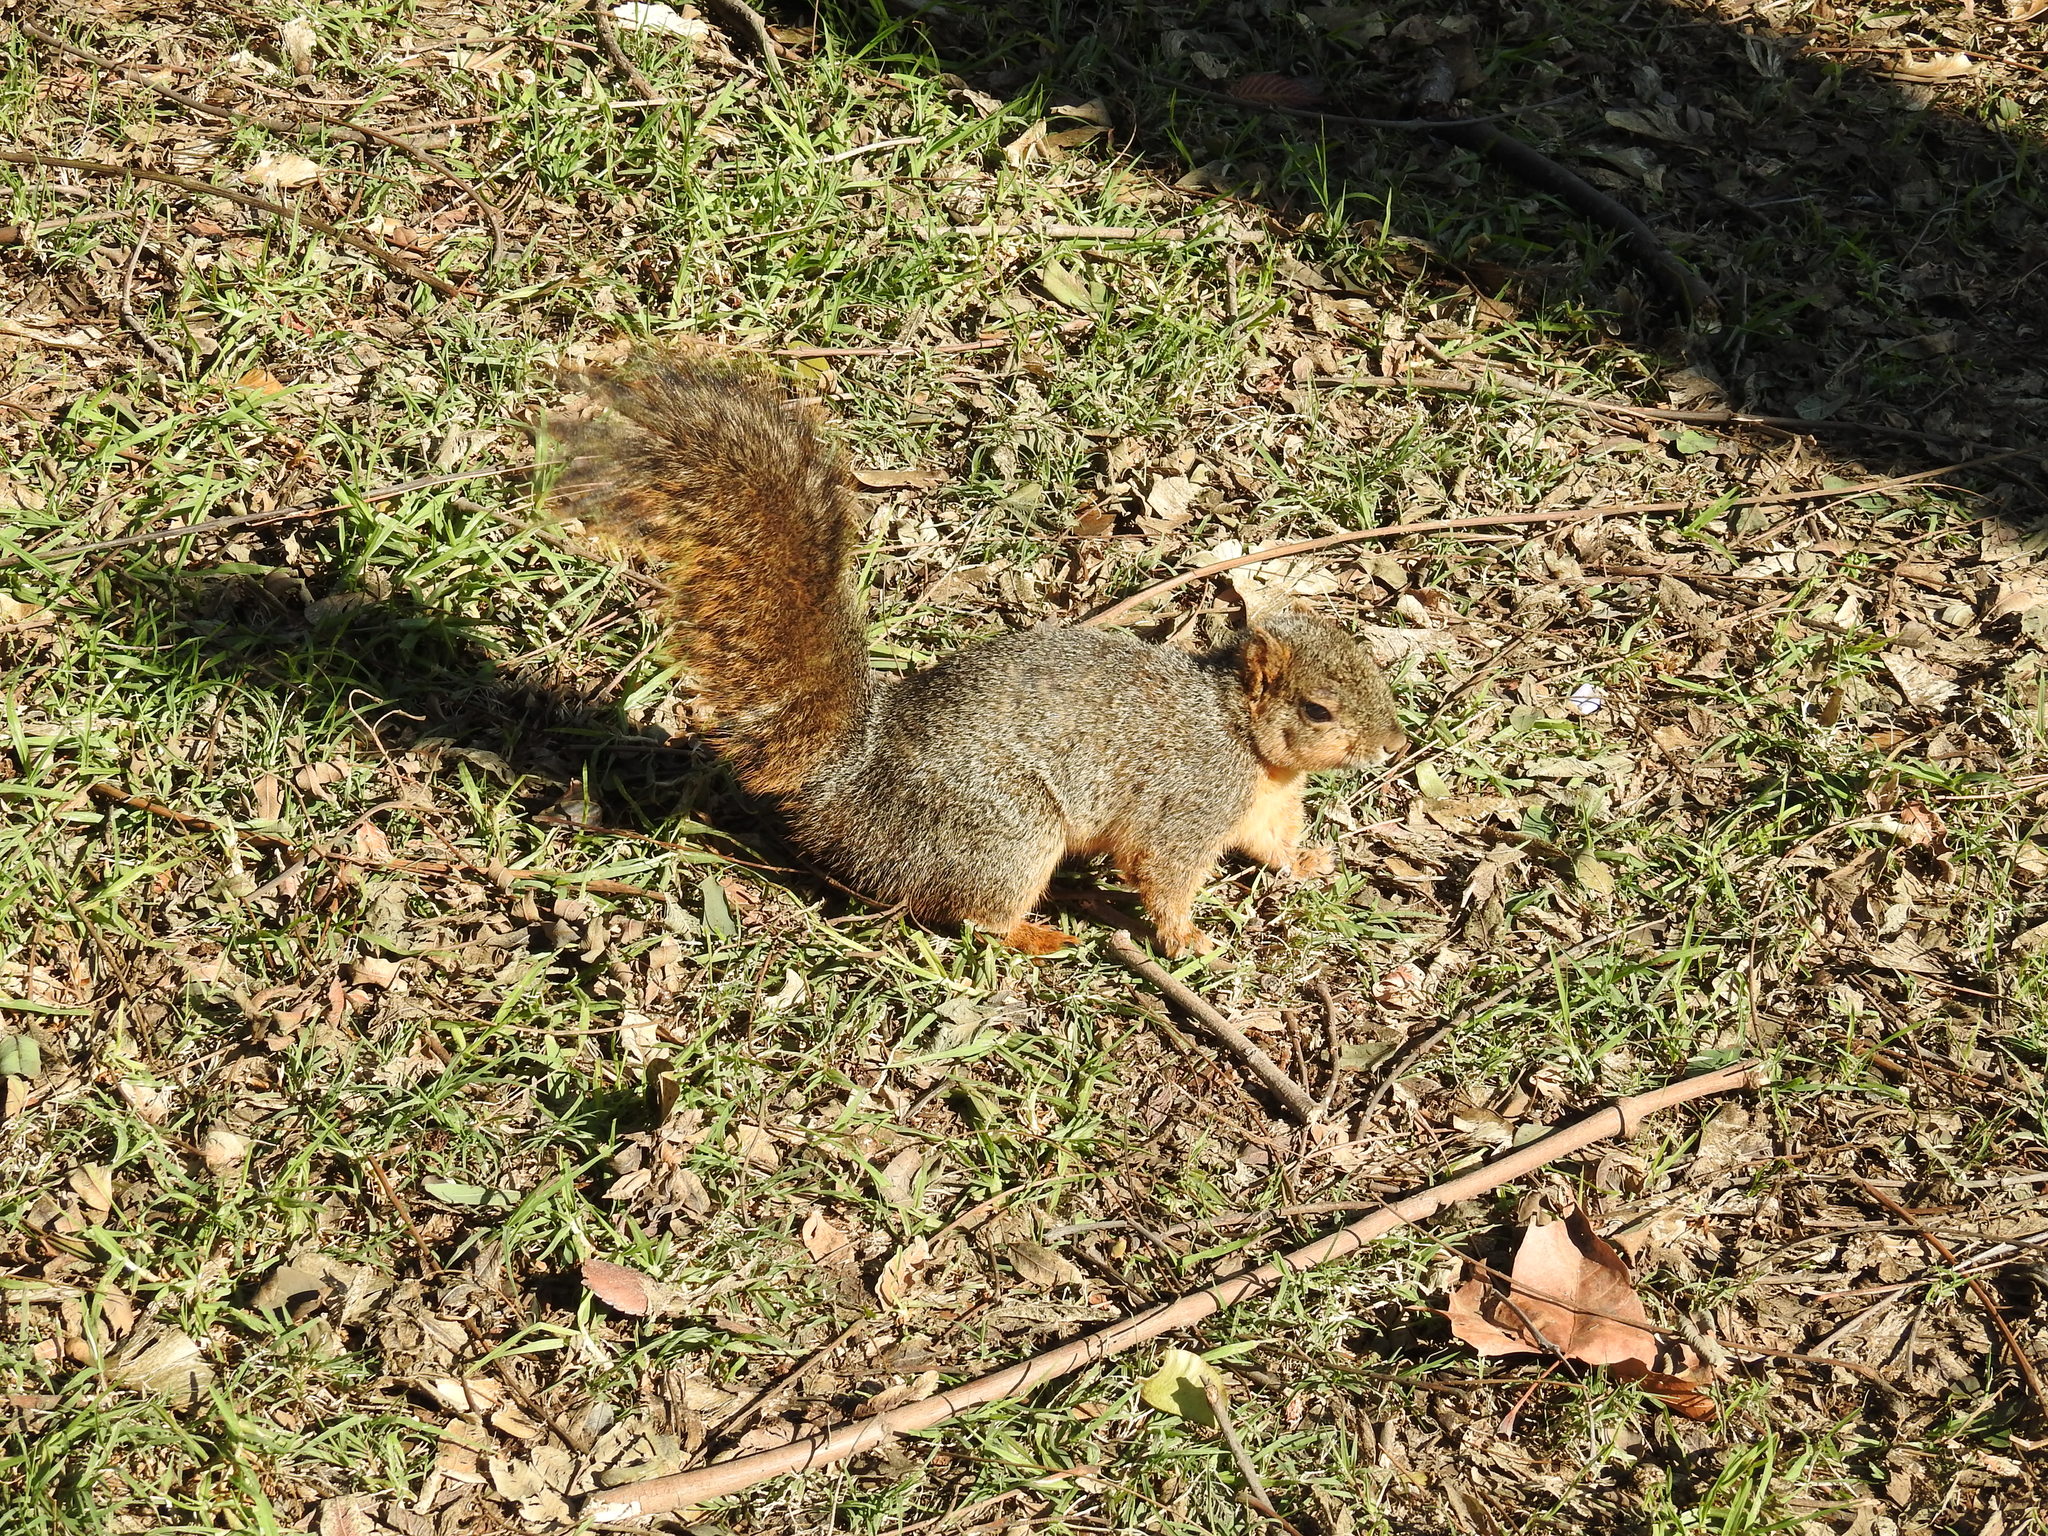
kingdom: Animalia
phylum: Chordata
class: Mammalia
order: Rodentia
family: Sciuridae
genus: Sciurus
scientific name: Sciurus niger
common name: Fox squirrel
